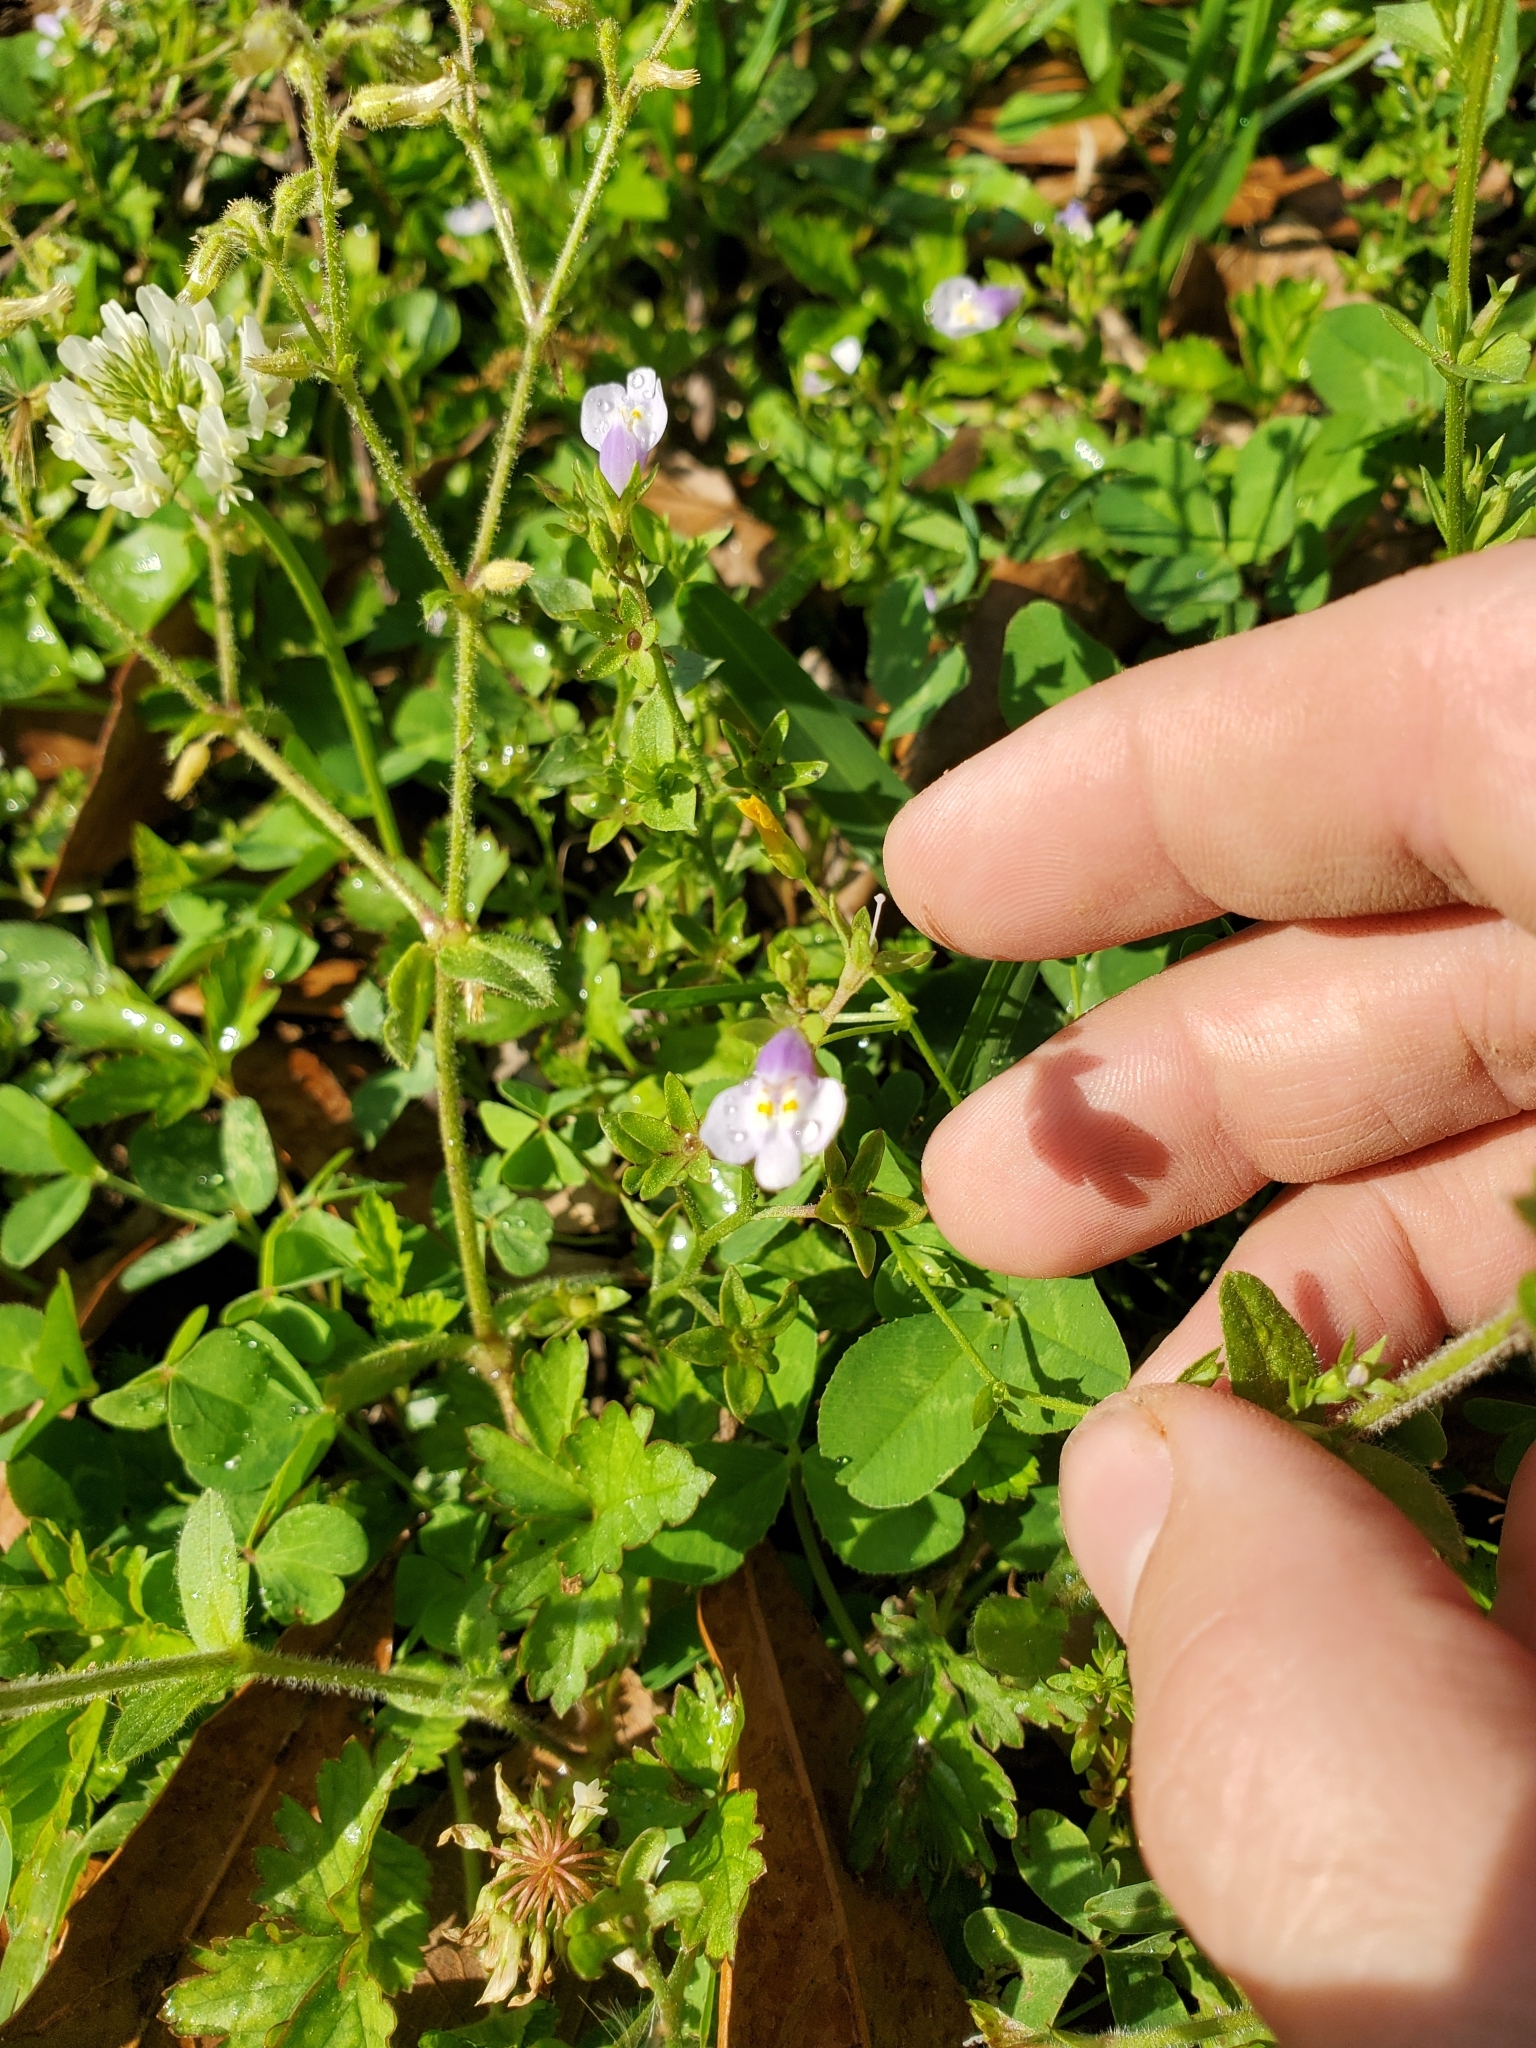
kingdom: Plantae
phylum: Tracheophyta
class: Magnoliopsida
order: Lamiales
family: Mazaceae
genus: Mazus
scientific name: Mazus pumilus
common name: Japanese mazus
